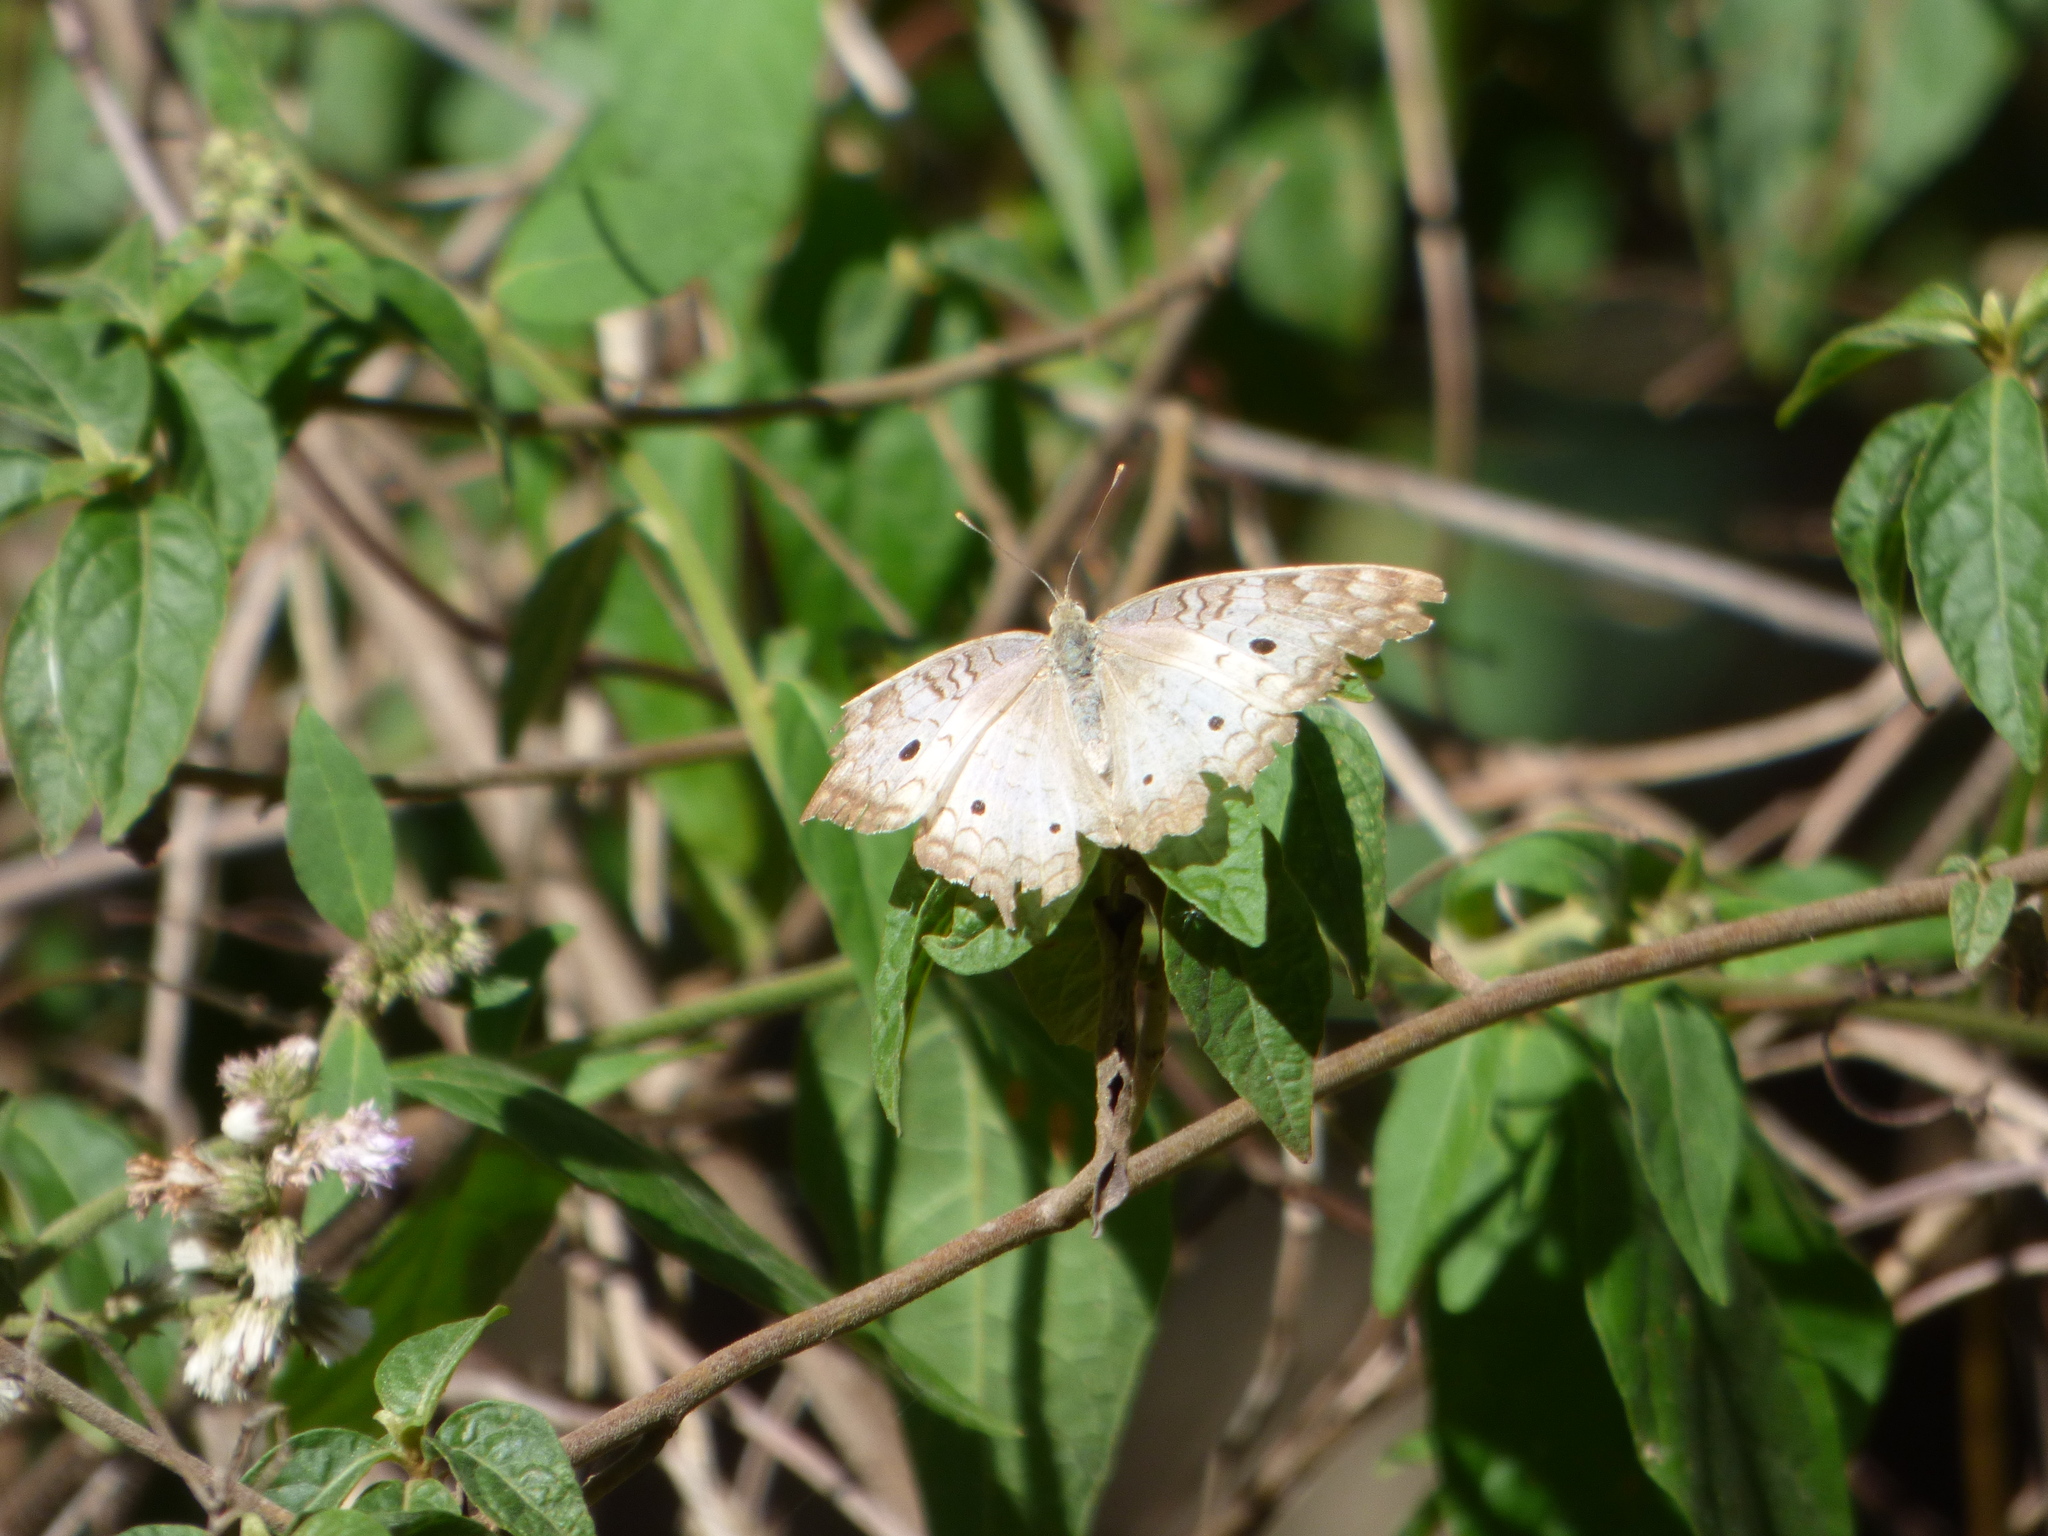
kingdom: Animalia
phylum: Arthropoda
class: Insecta
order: Lepidoptera
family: Nymphalidae
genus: Anartia
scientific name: Anartia jatrophae
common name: White peacock
